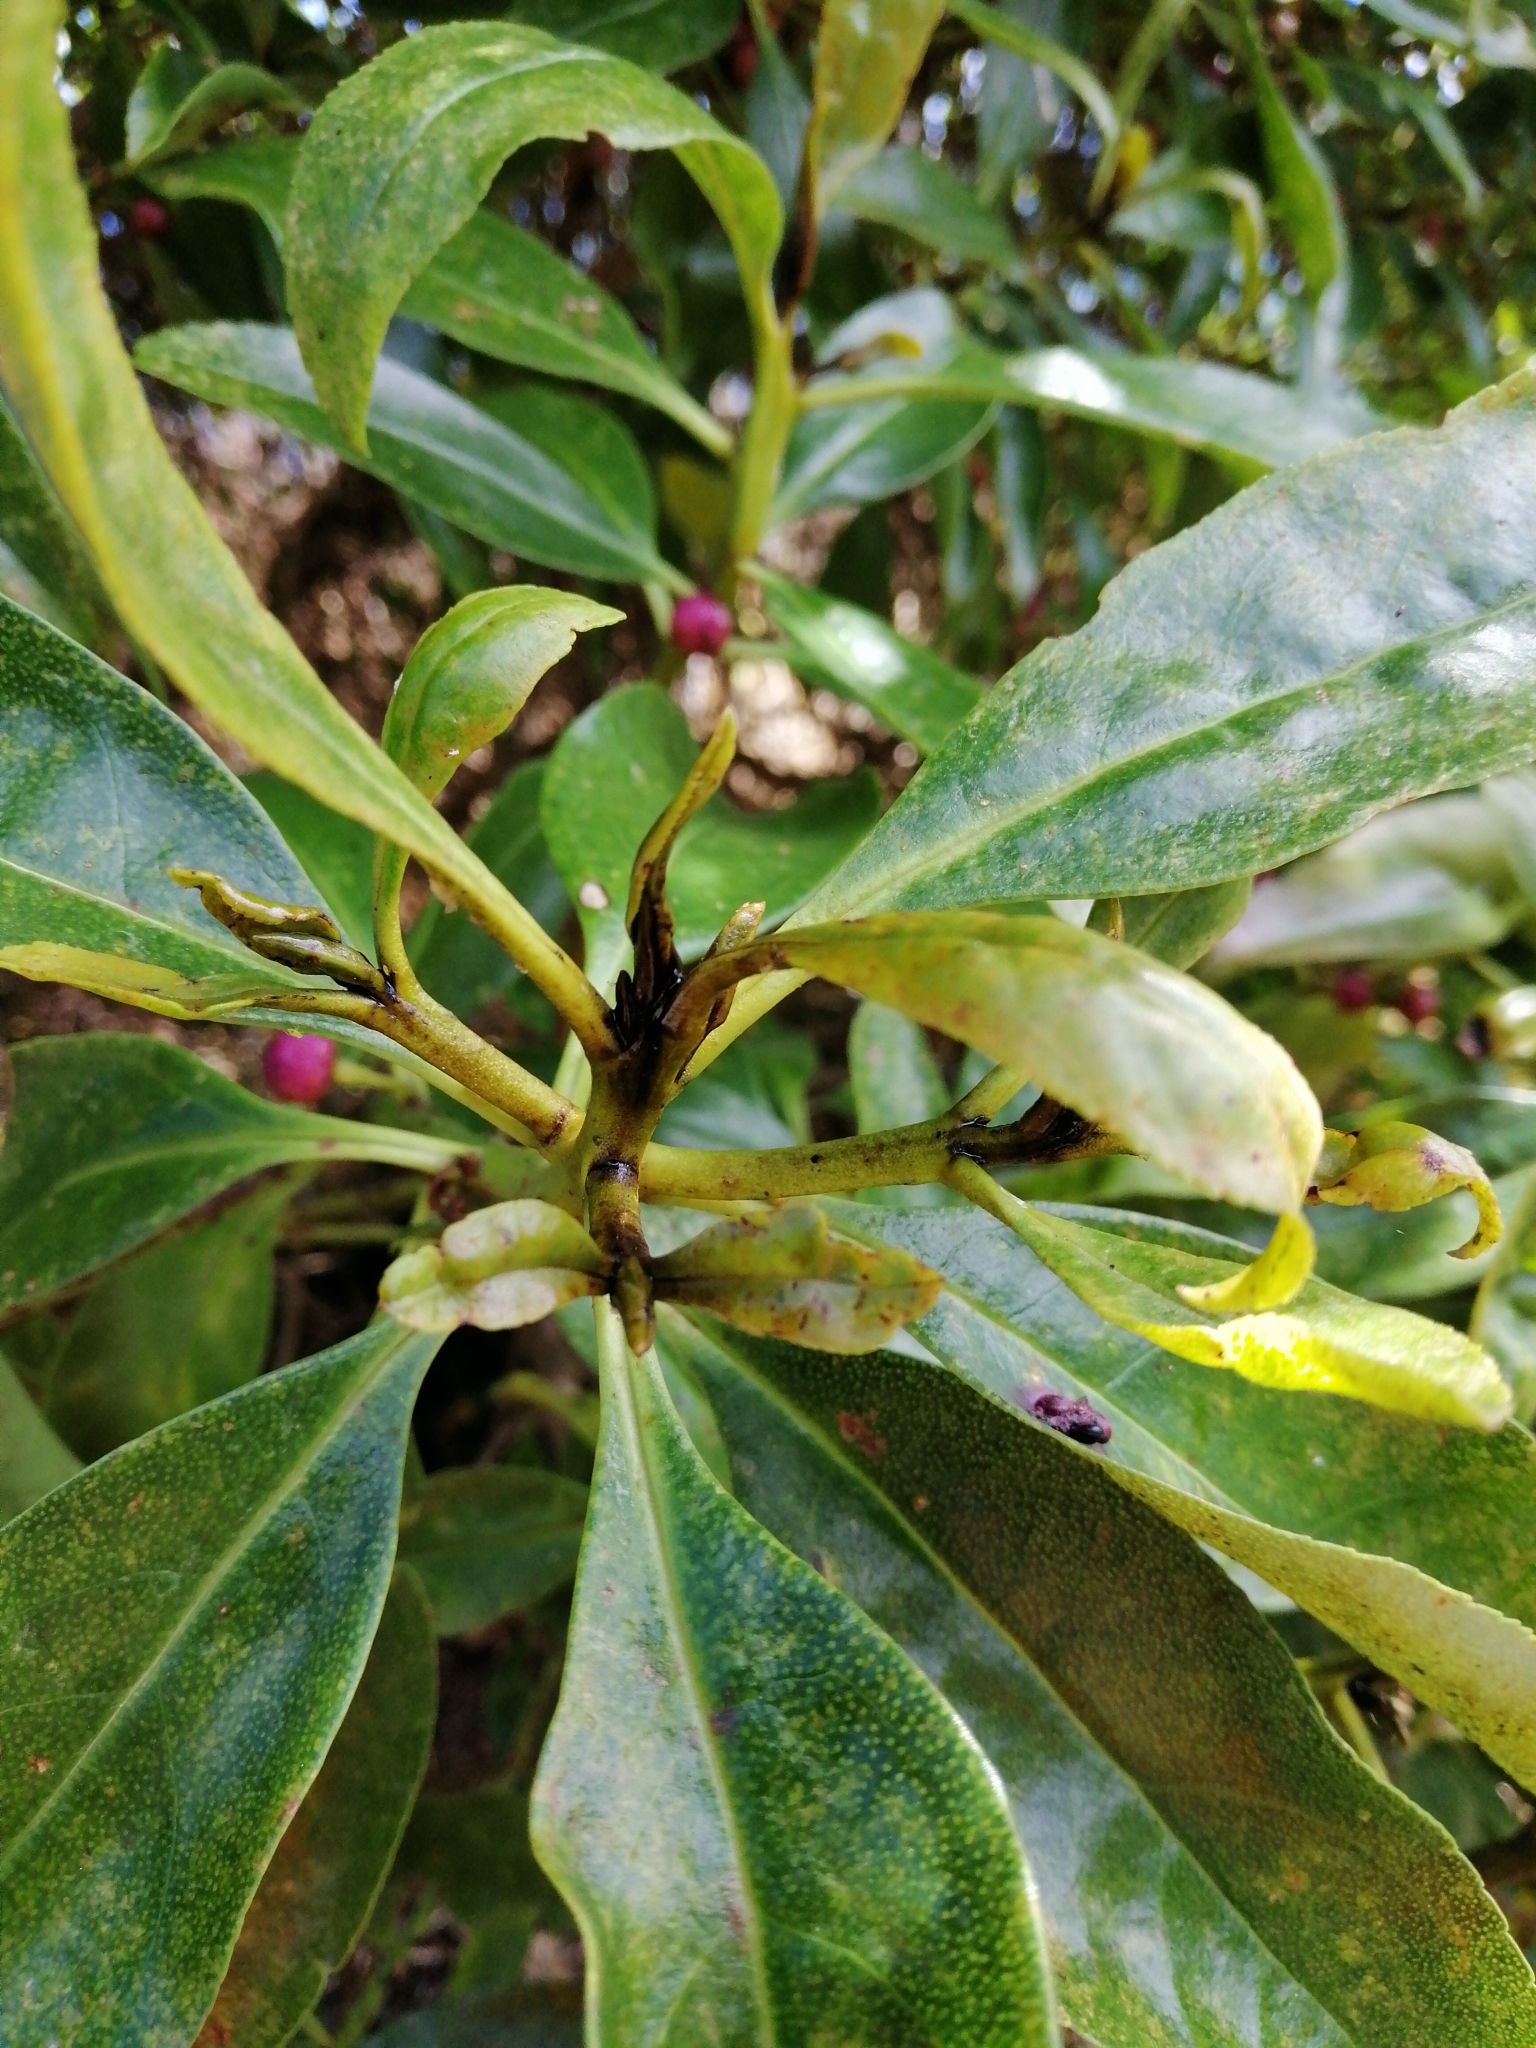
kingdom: Plantae
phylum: Tracheophyta
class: Magnoliopsida
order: Lamiales
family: Scrophulariaceae
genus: Myoporum
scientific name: Myoporum laetum
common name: Ngaio tree
